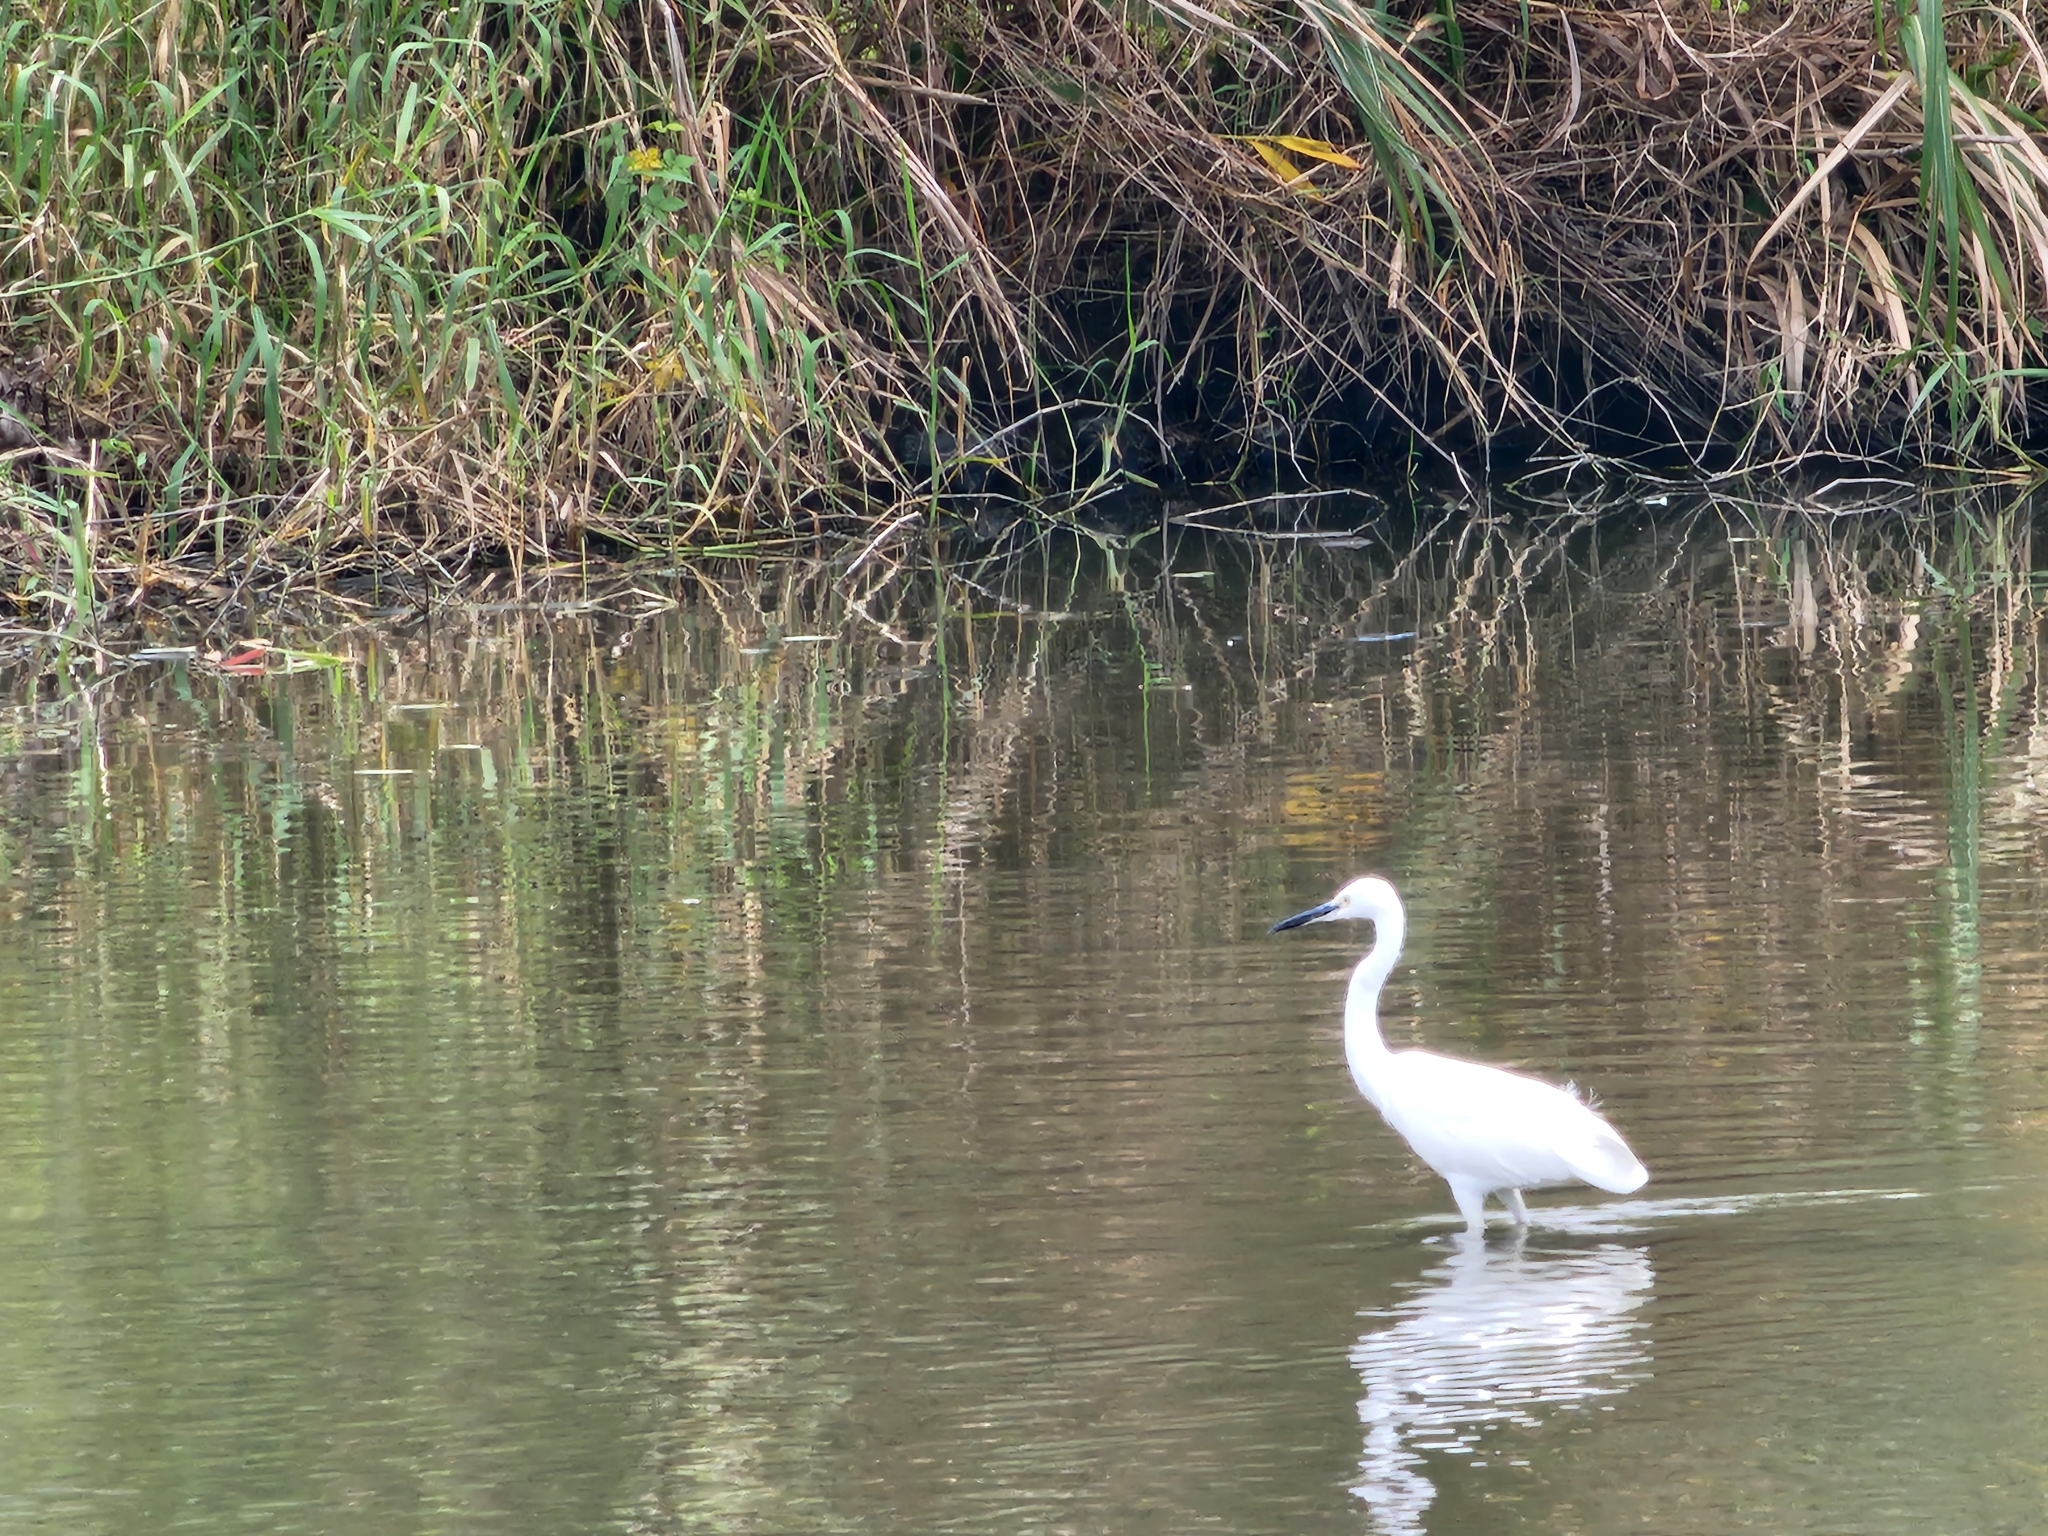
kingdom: Animalia
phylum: Chordata
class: Aves
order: Pelecaniformes
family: Ardeidae
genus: Egretta
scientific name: Egretta garzetta
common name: Little egret
